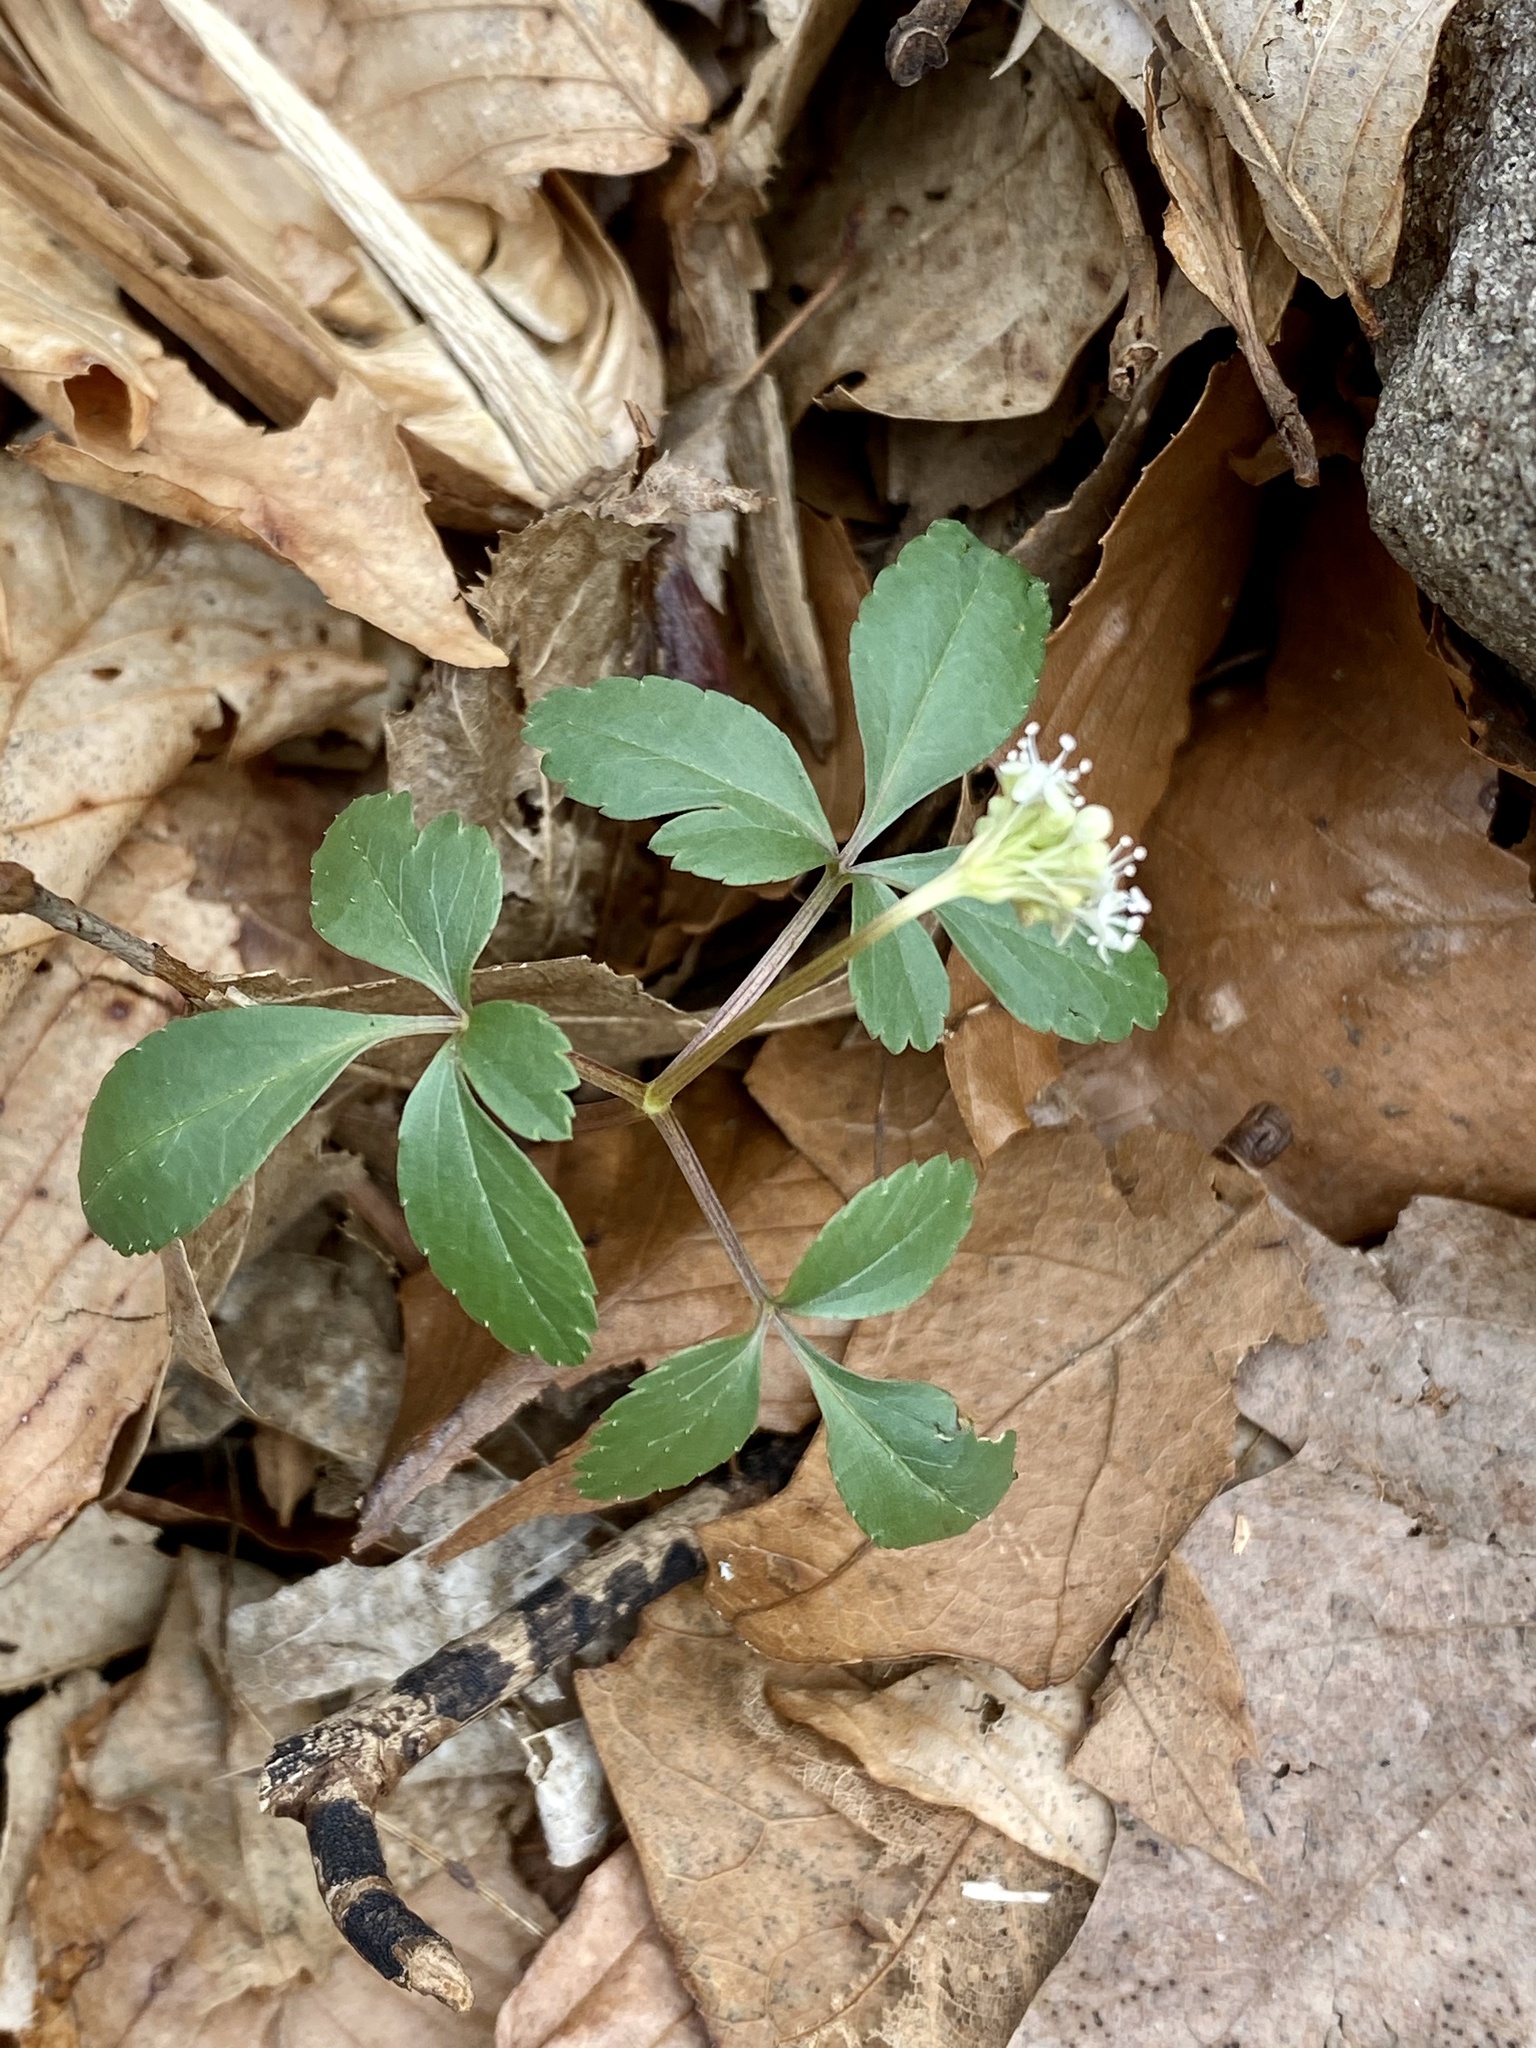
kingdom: Plantae
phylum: Tracheophyta
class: Magnoliopsida
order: Apiales
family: Araliaceae
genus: Panax
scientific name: Panax trifolius
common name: Dwarf ginseng
